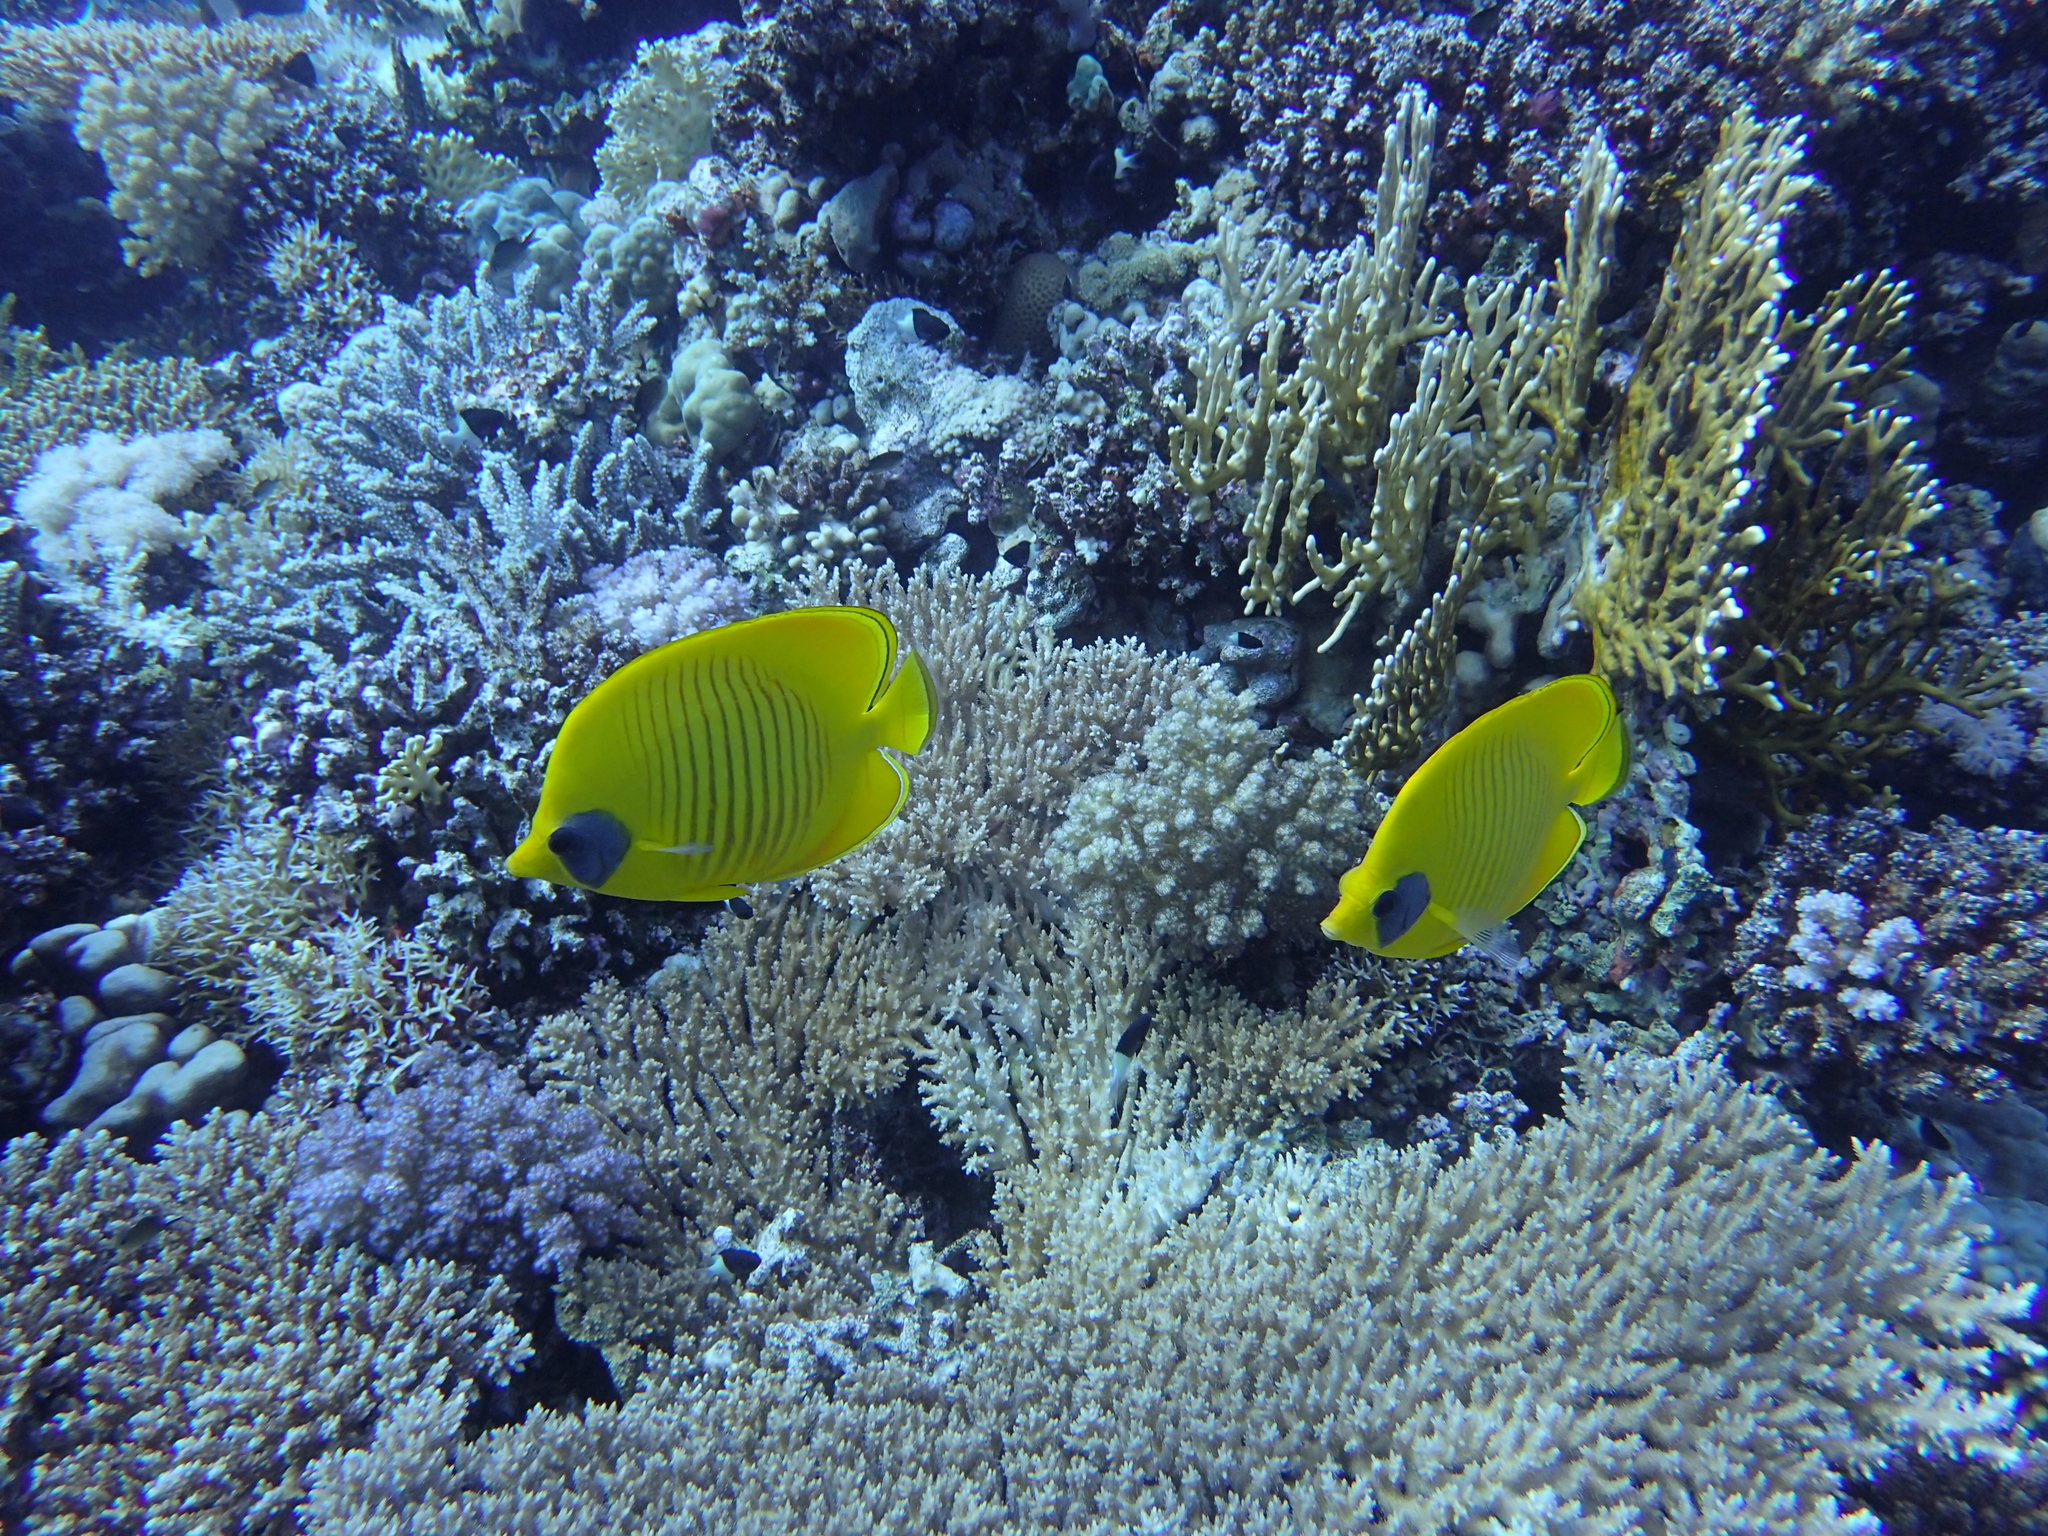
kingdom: Animalia
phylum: Chordata
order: Perciformes
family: Chaetodontidae
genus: Chaetodon
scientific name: Chaetodon semilarvatus
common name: Golden butterflyfish
